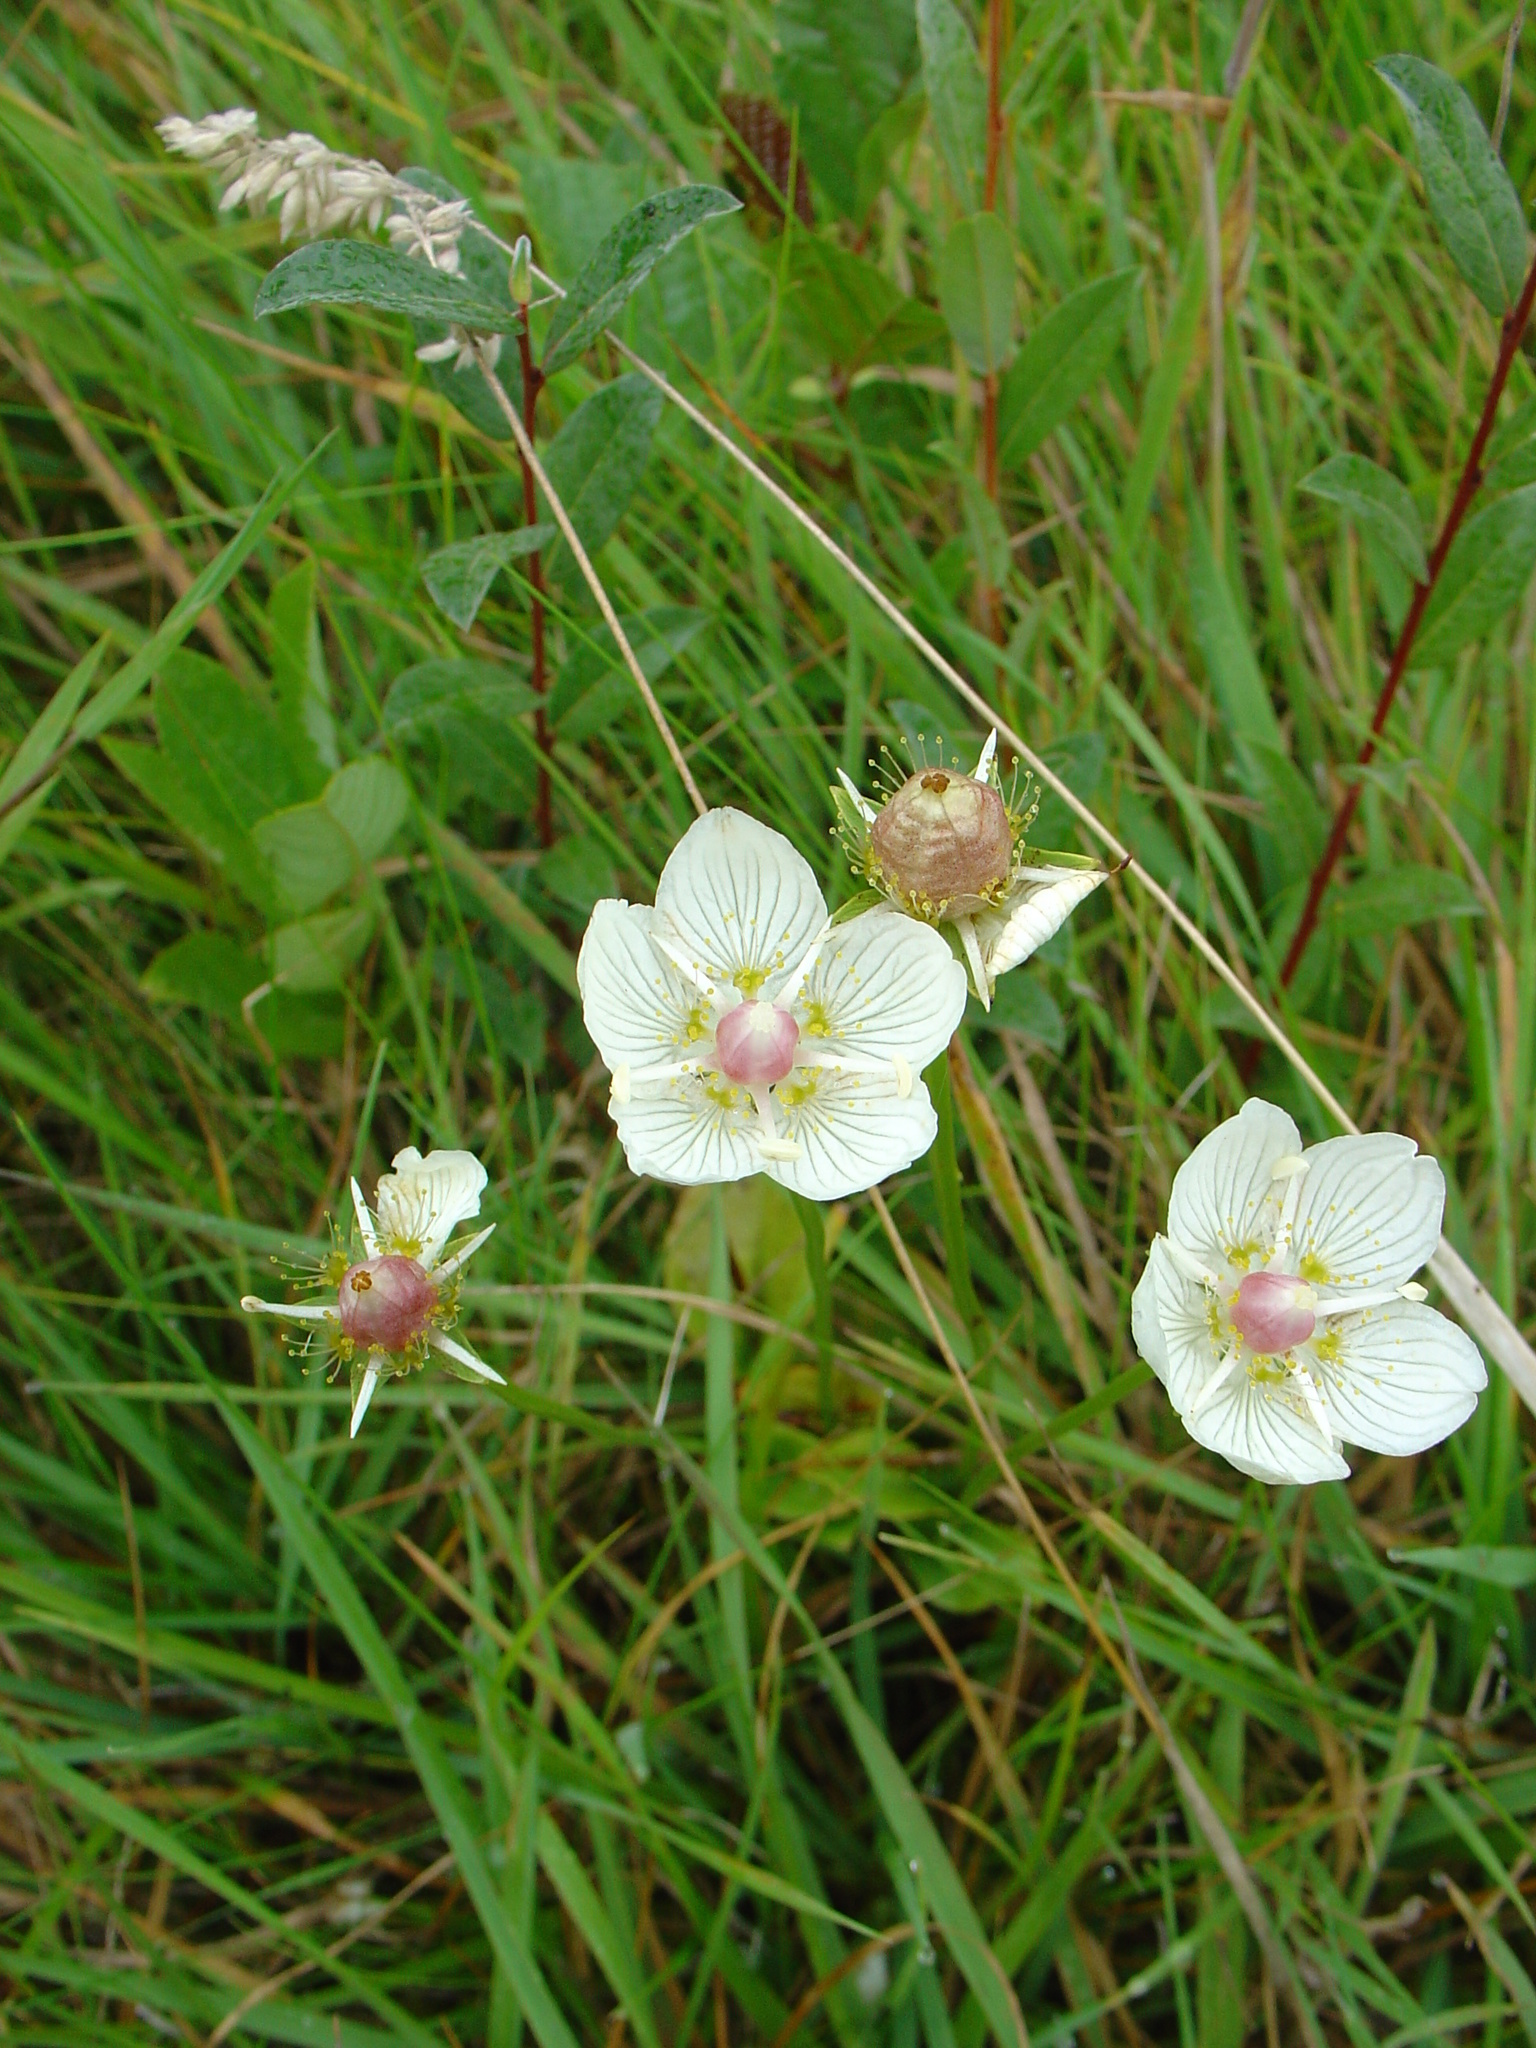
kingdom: Plantae
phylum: Tracheophyta
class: Magnoliopsida
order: Celastrales
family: Parnassiaceae
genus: Parnassia
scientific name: Parnassia palustris
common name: Grass-of-parnassus
